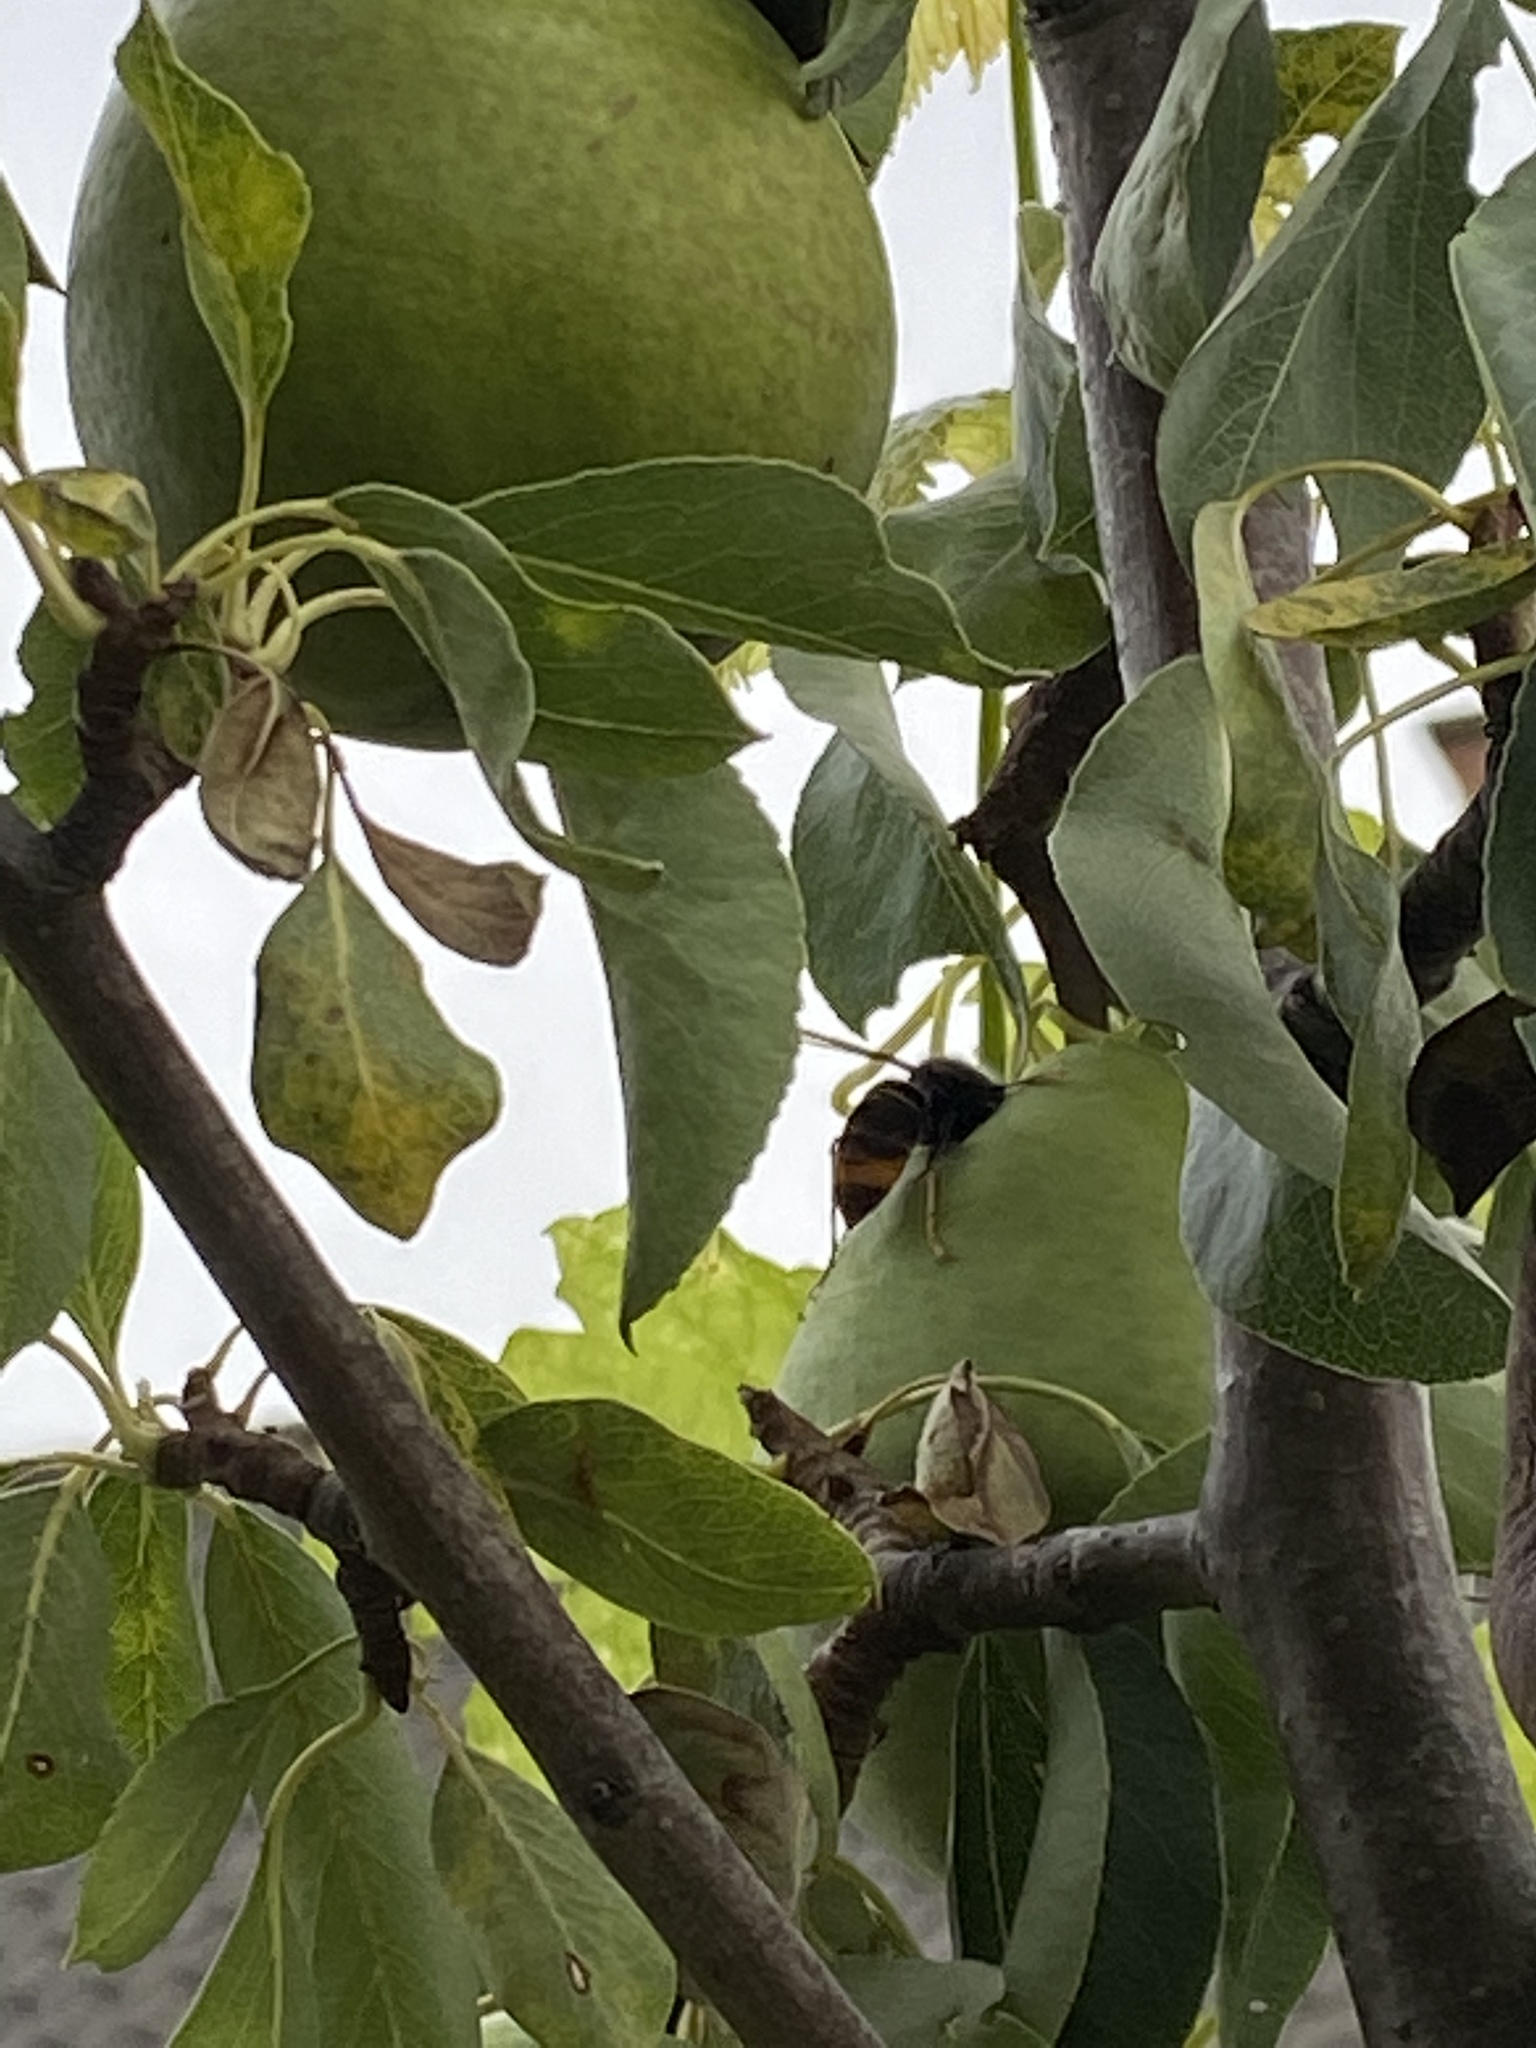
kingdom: Animalia
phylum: Arthropoda
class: Insecta
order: Hymenoptera
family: Vespidae
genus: Vespa
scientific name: Vespa velutina
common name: Asian hornet
